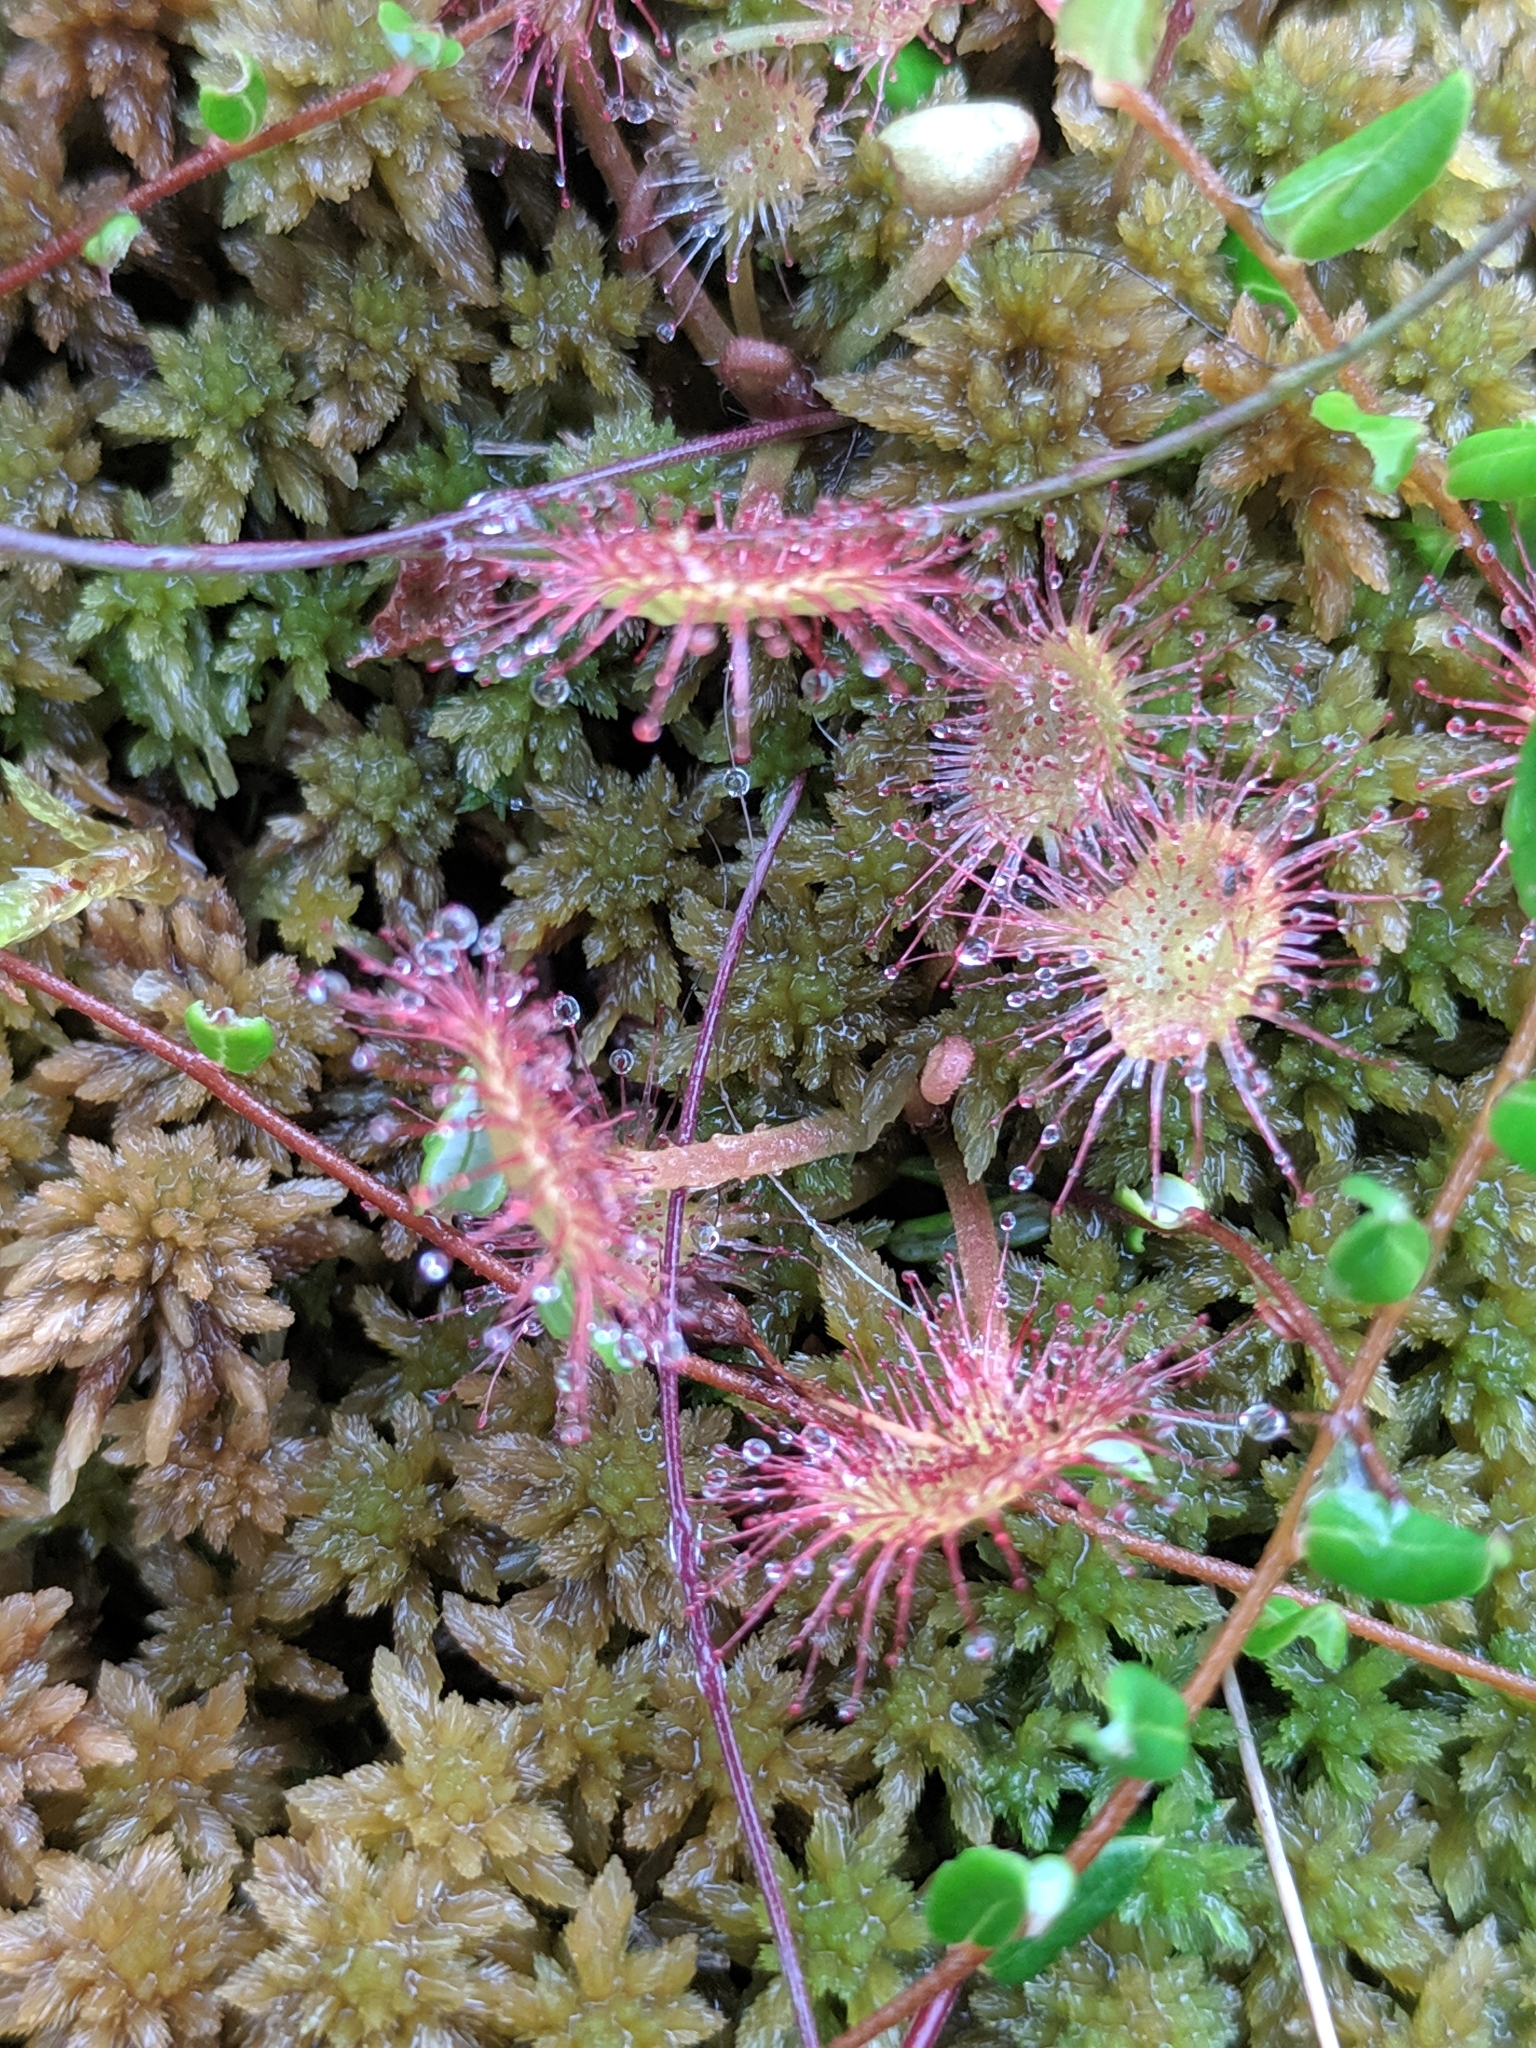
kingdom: Plantae
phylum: Tracheophyta
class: Magnoliopsida
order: Caryophyllales
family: Droseraceae
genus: Drosera
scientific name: Drosera rotundifolia
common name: Round-leaved sundew
